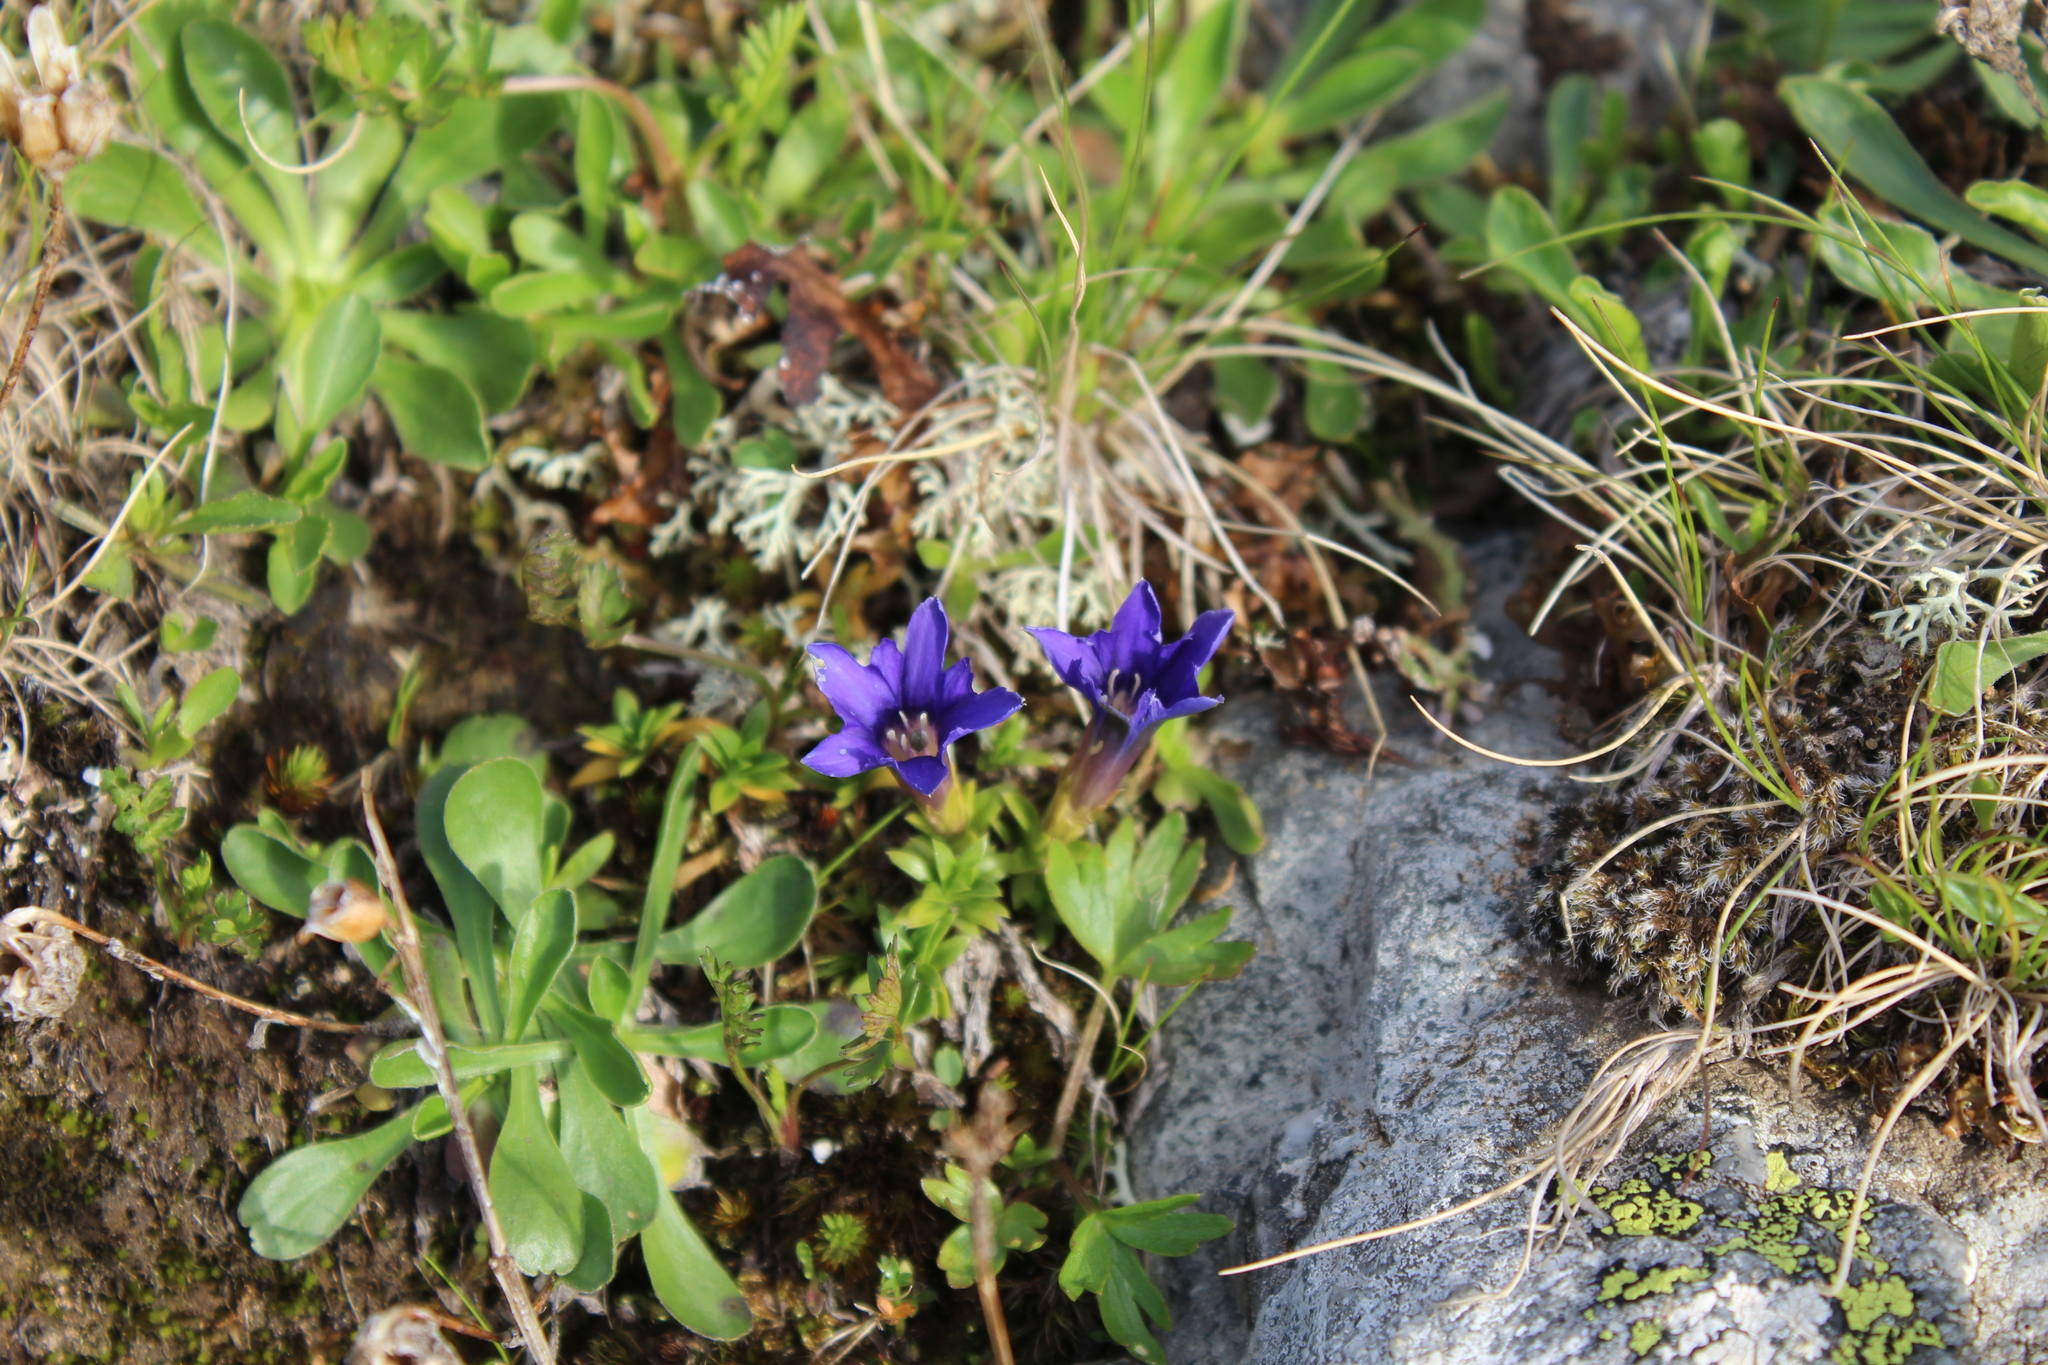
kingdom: Plantae
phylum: Tracheophyta
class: Magnoliopsida
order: Gentianales
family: Gentianaceae
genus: Gentiana
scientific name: Gentiana dshimilensis
